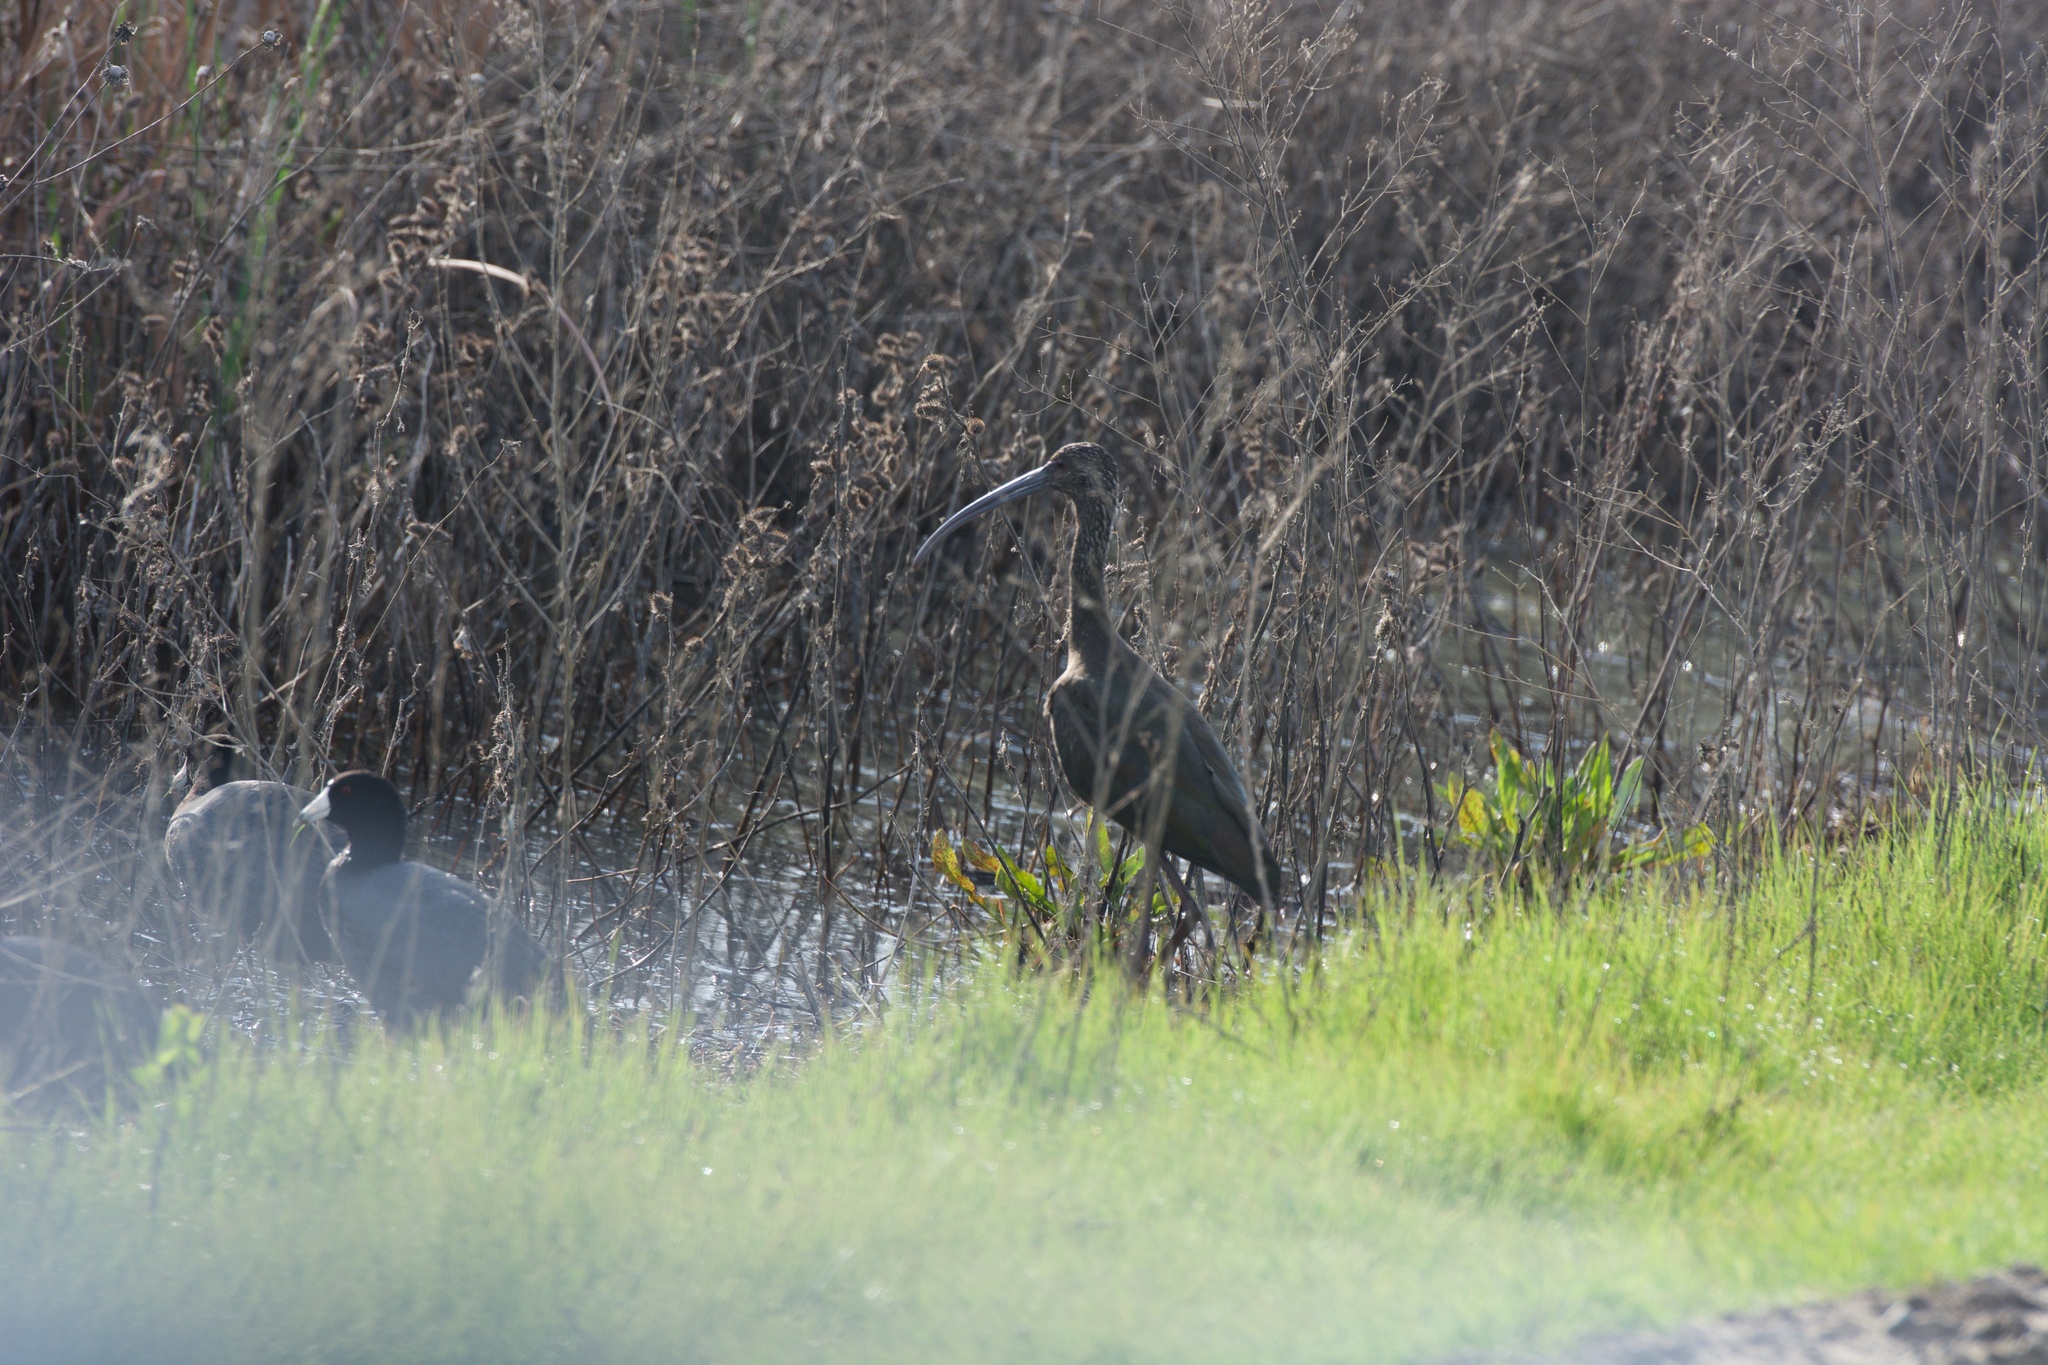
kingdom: Animalia
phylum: Chordata
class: Aves
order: Pelecaniformes
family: Threskiornithidae
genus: Plegadis
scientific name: Plegadis chihi
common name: White-faced ibis
